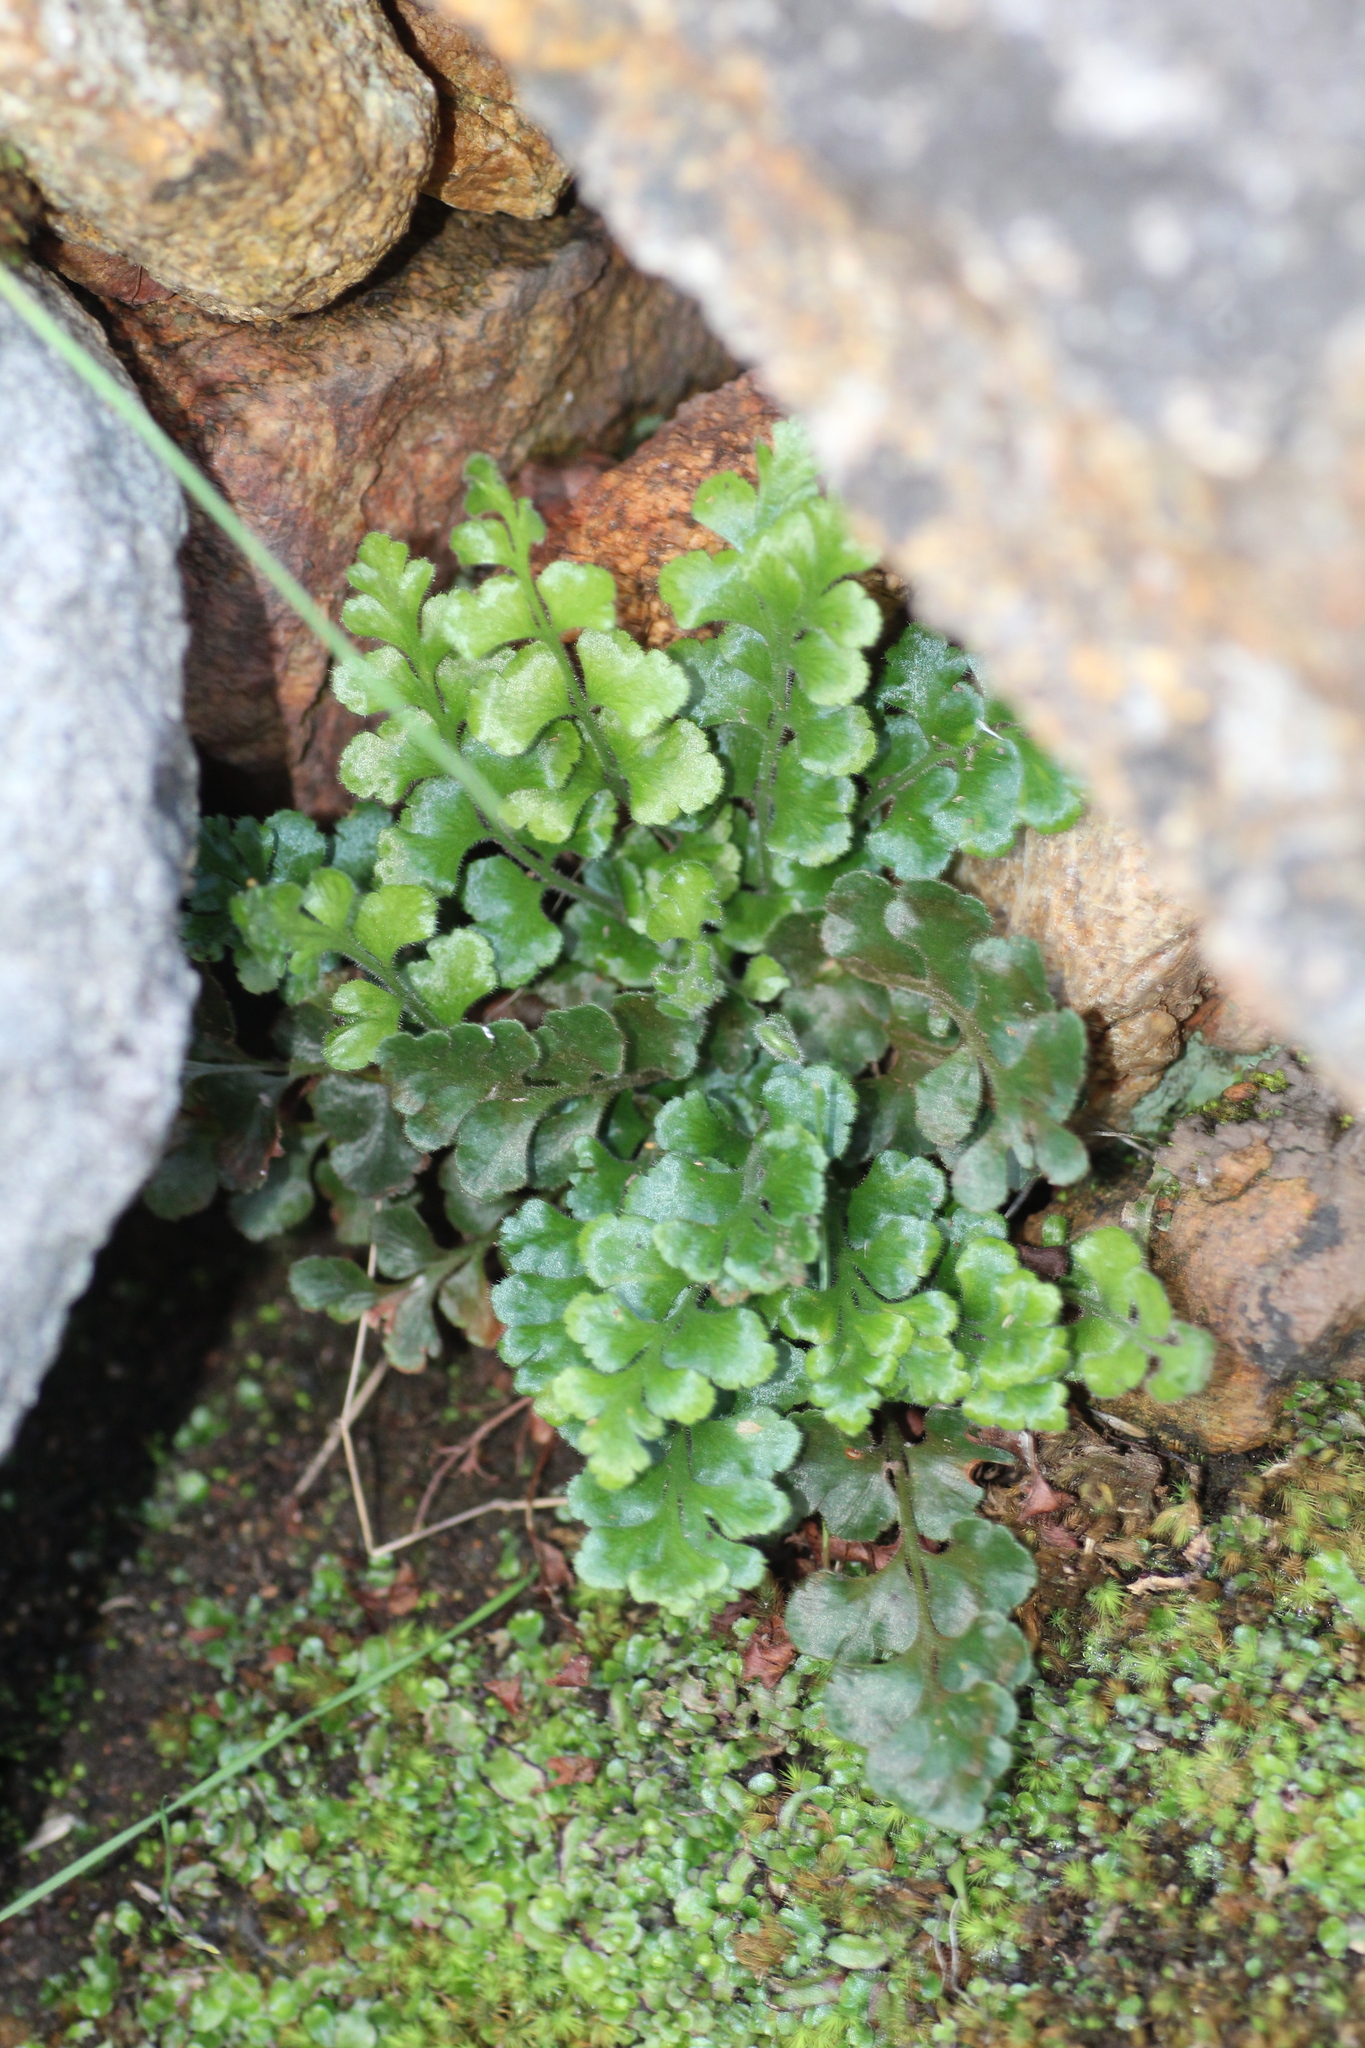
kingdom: Plantae
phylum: Tracheophyta
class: Polypodiopsida
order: Polypodiales
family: Aspleniaceae
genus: Asplenium
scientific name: Asplenium subglandulosum
